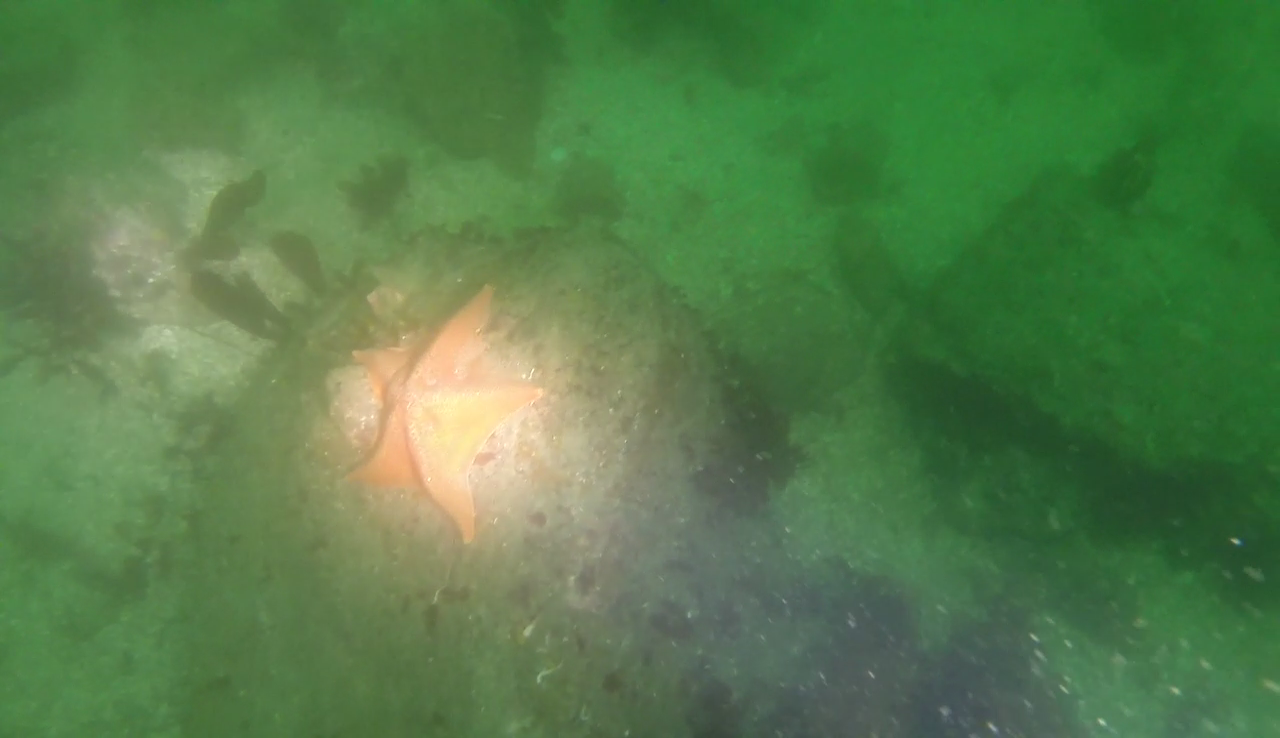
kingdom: Animalia
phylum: Echinodermata
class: Asteroidea
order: Valvatida
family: Asterinidae
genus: Patiria
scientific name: Patiria miniata
